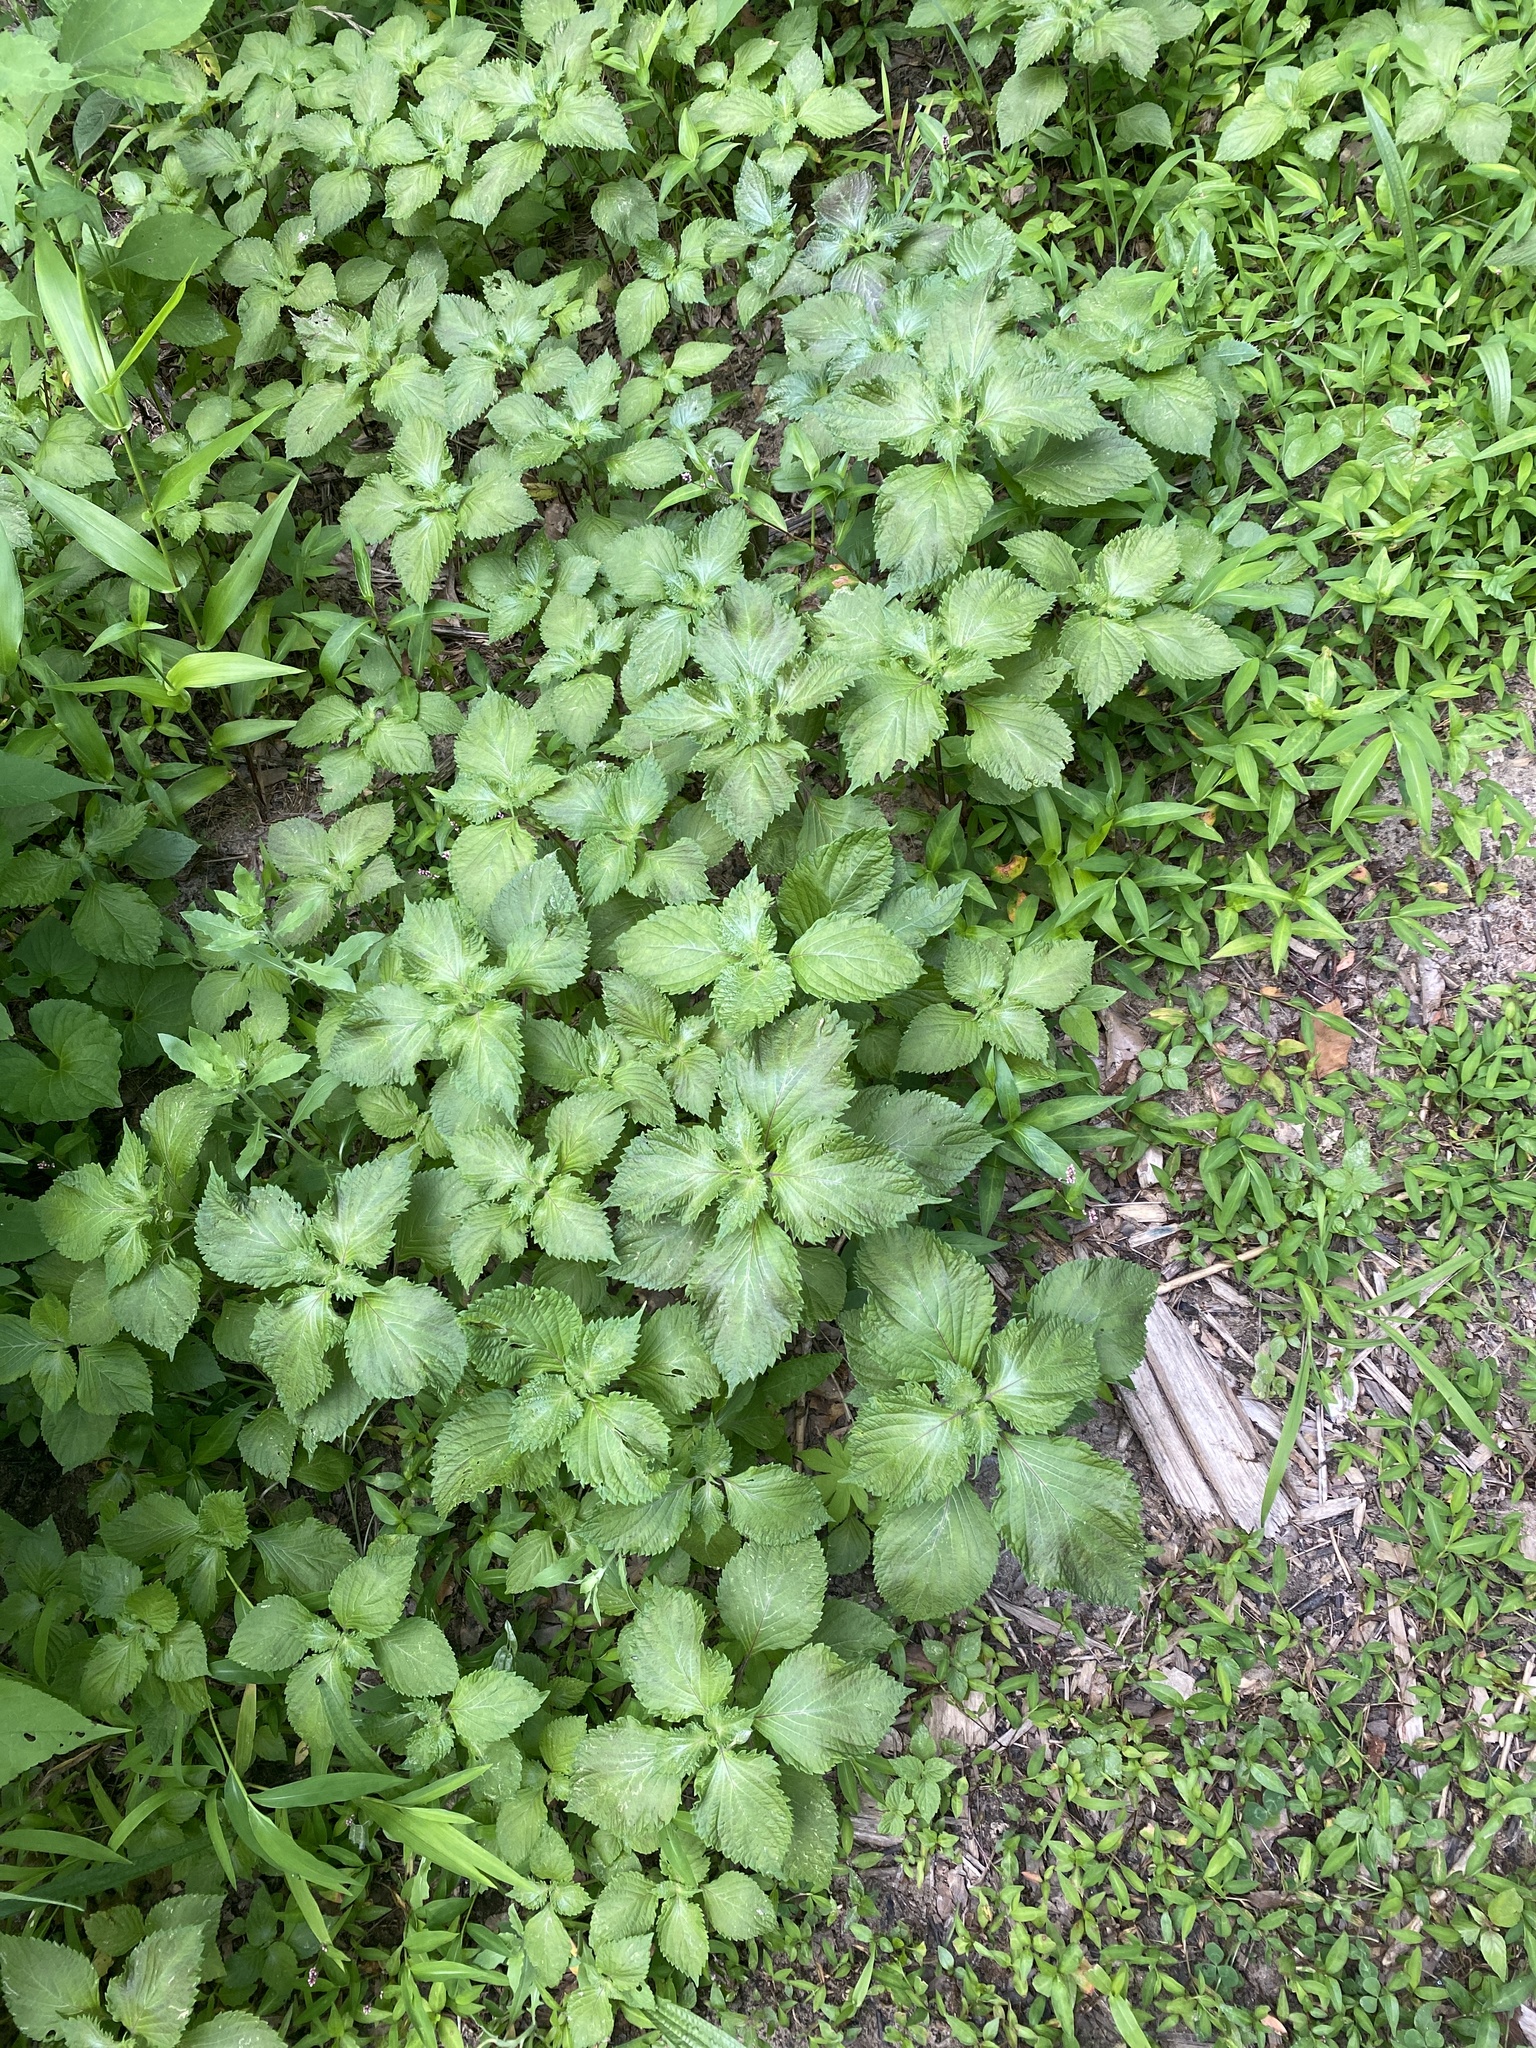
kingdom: Plantae
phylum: Tracheophyta
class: Magnoliopsida
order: Lamiales
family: Lamiaceae
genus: Perilla
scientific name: Perilla frutescens
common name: Perilla
